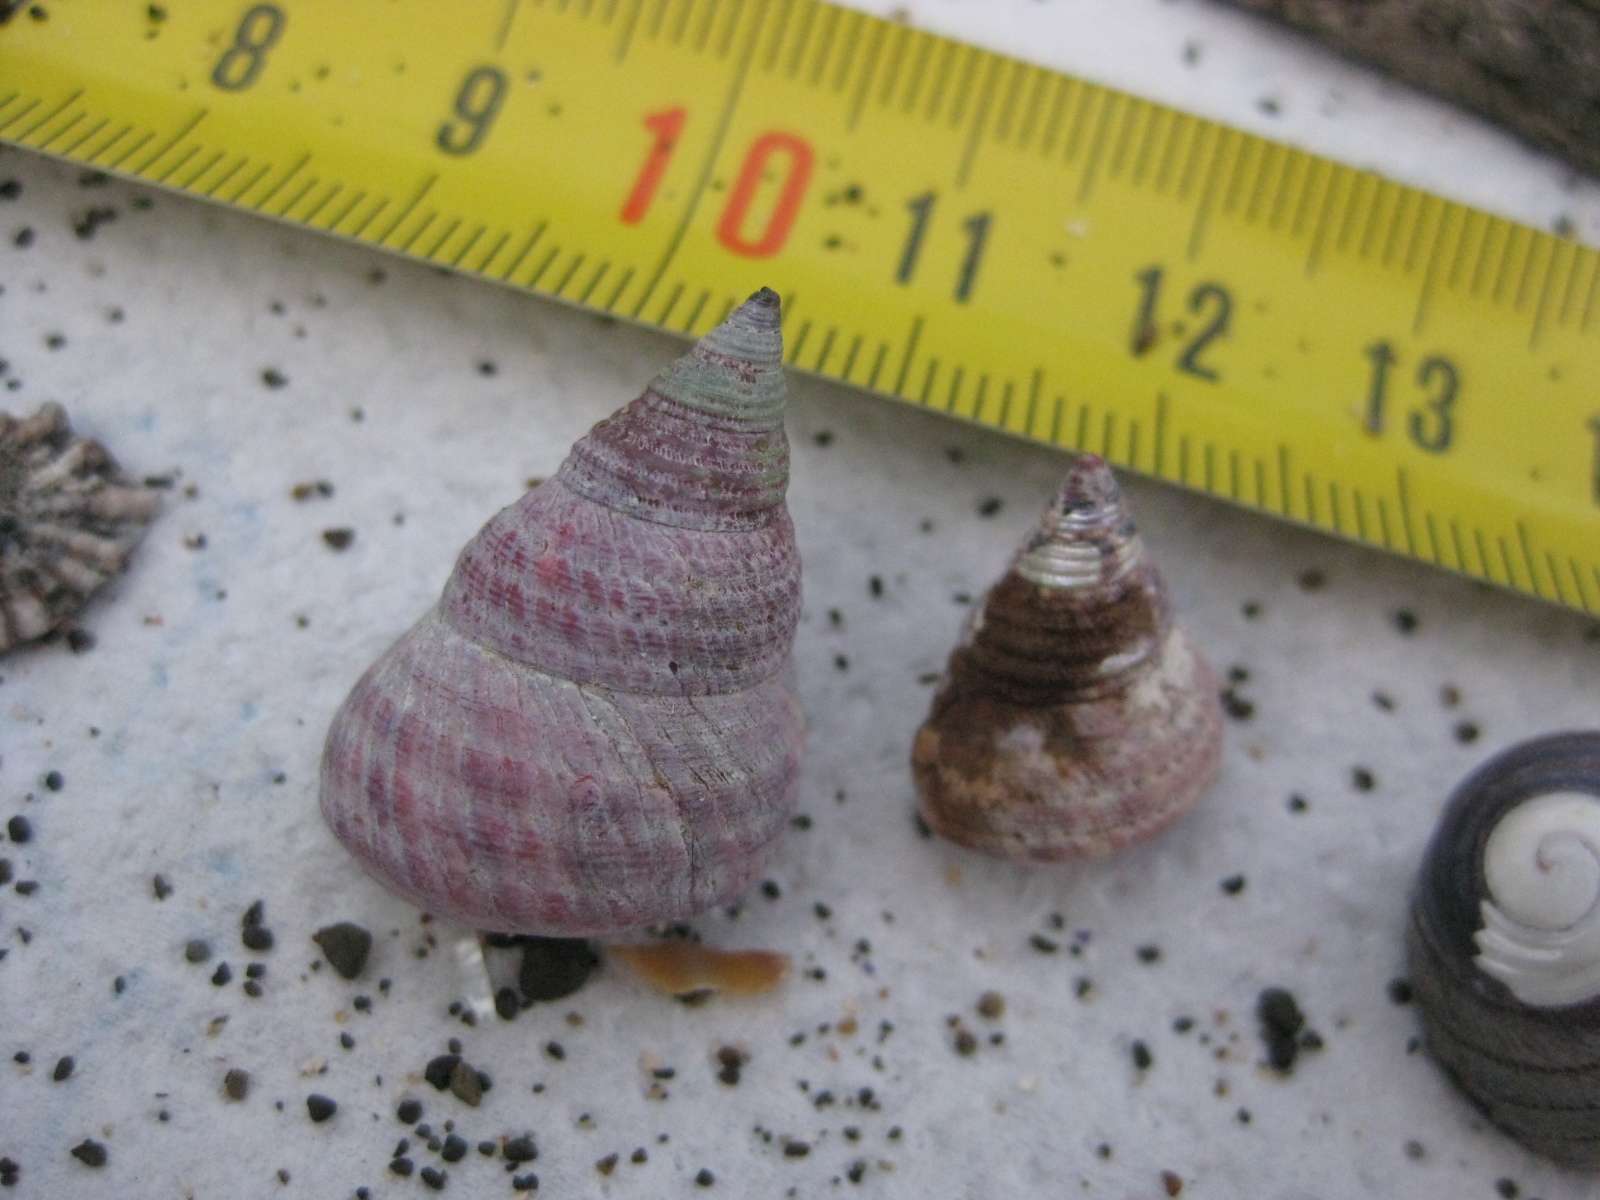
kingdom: Animalia
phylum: Mollusca
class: Gastropoda
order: Trochida
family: Trochidae
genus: Micrelenchus
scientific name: Micrelenchus purpureus
